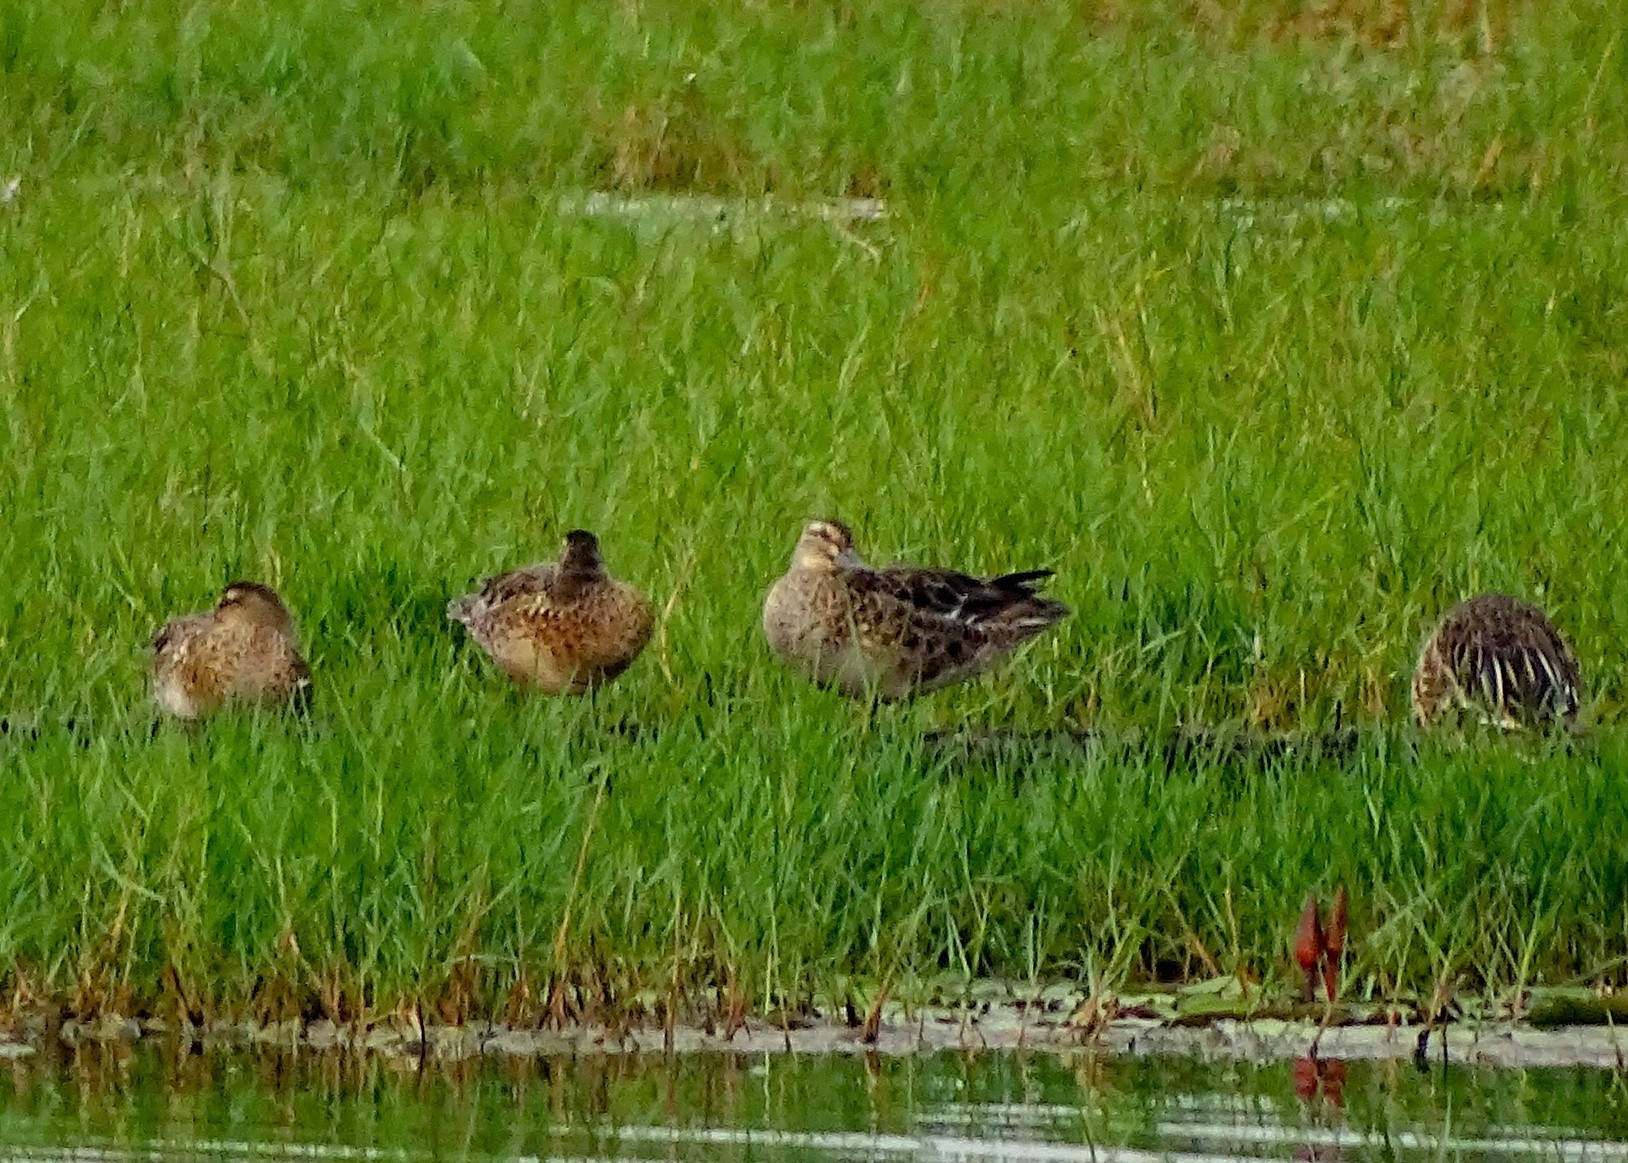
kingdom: Animalia
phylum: Chordata
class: Aves
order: Anseriformes
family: Anatidae
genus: Spatula
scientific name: Spatula querquedula
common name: Garganey
